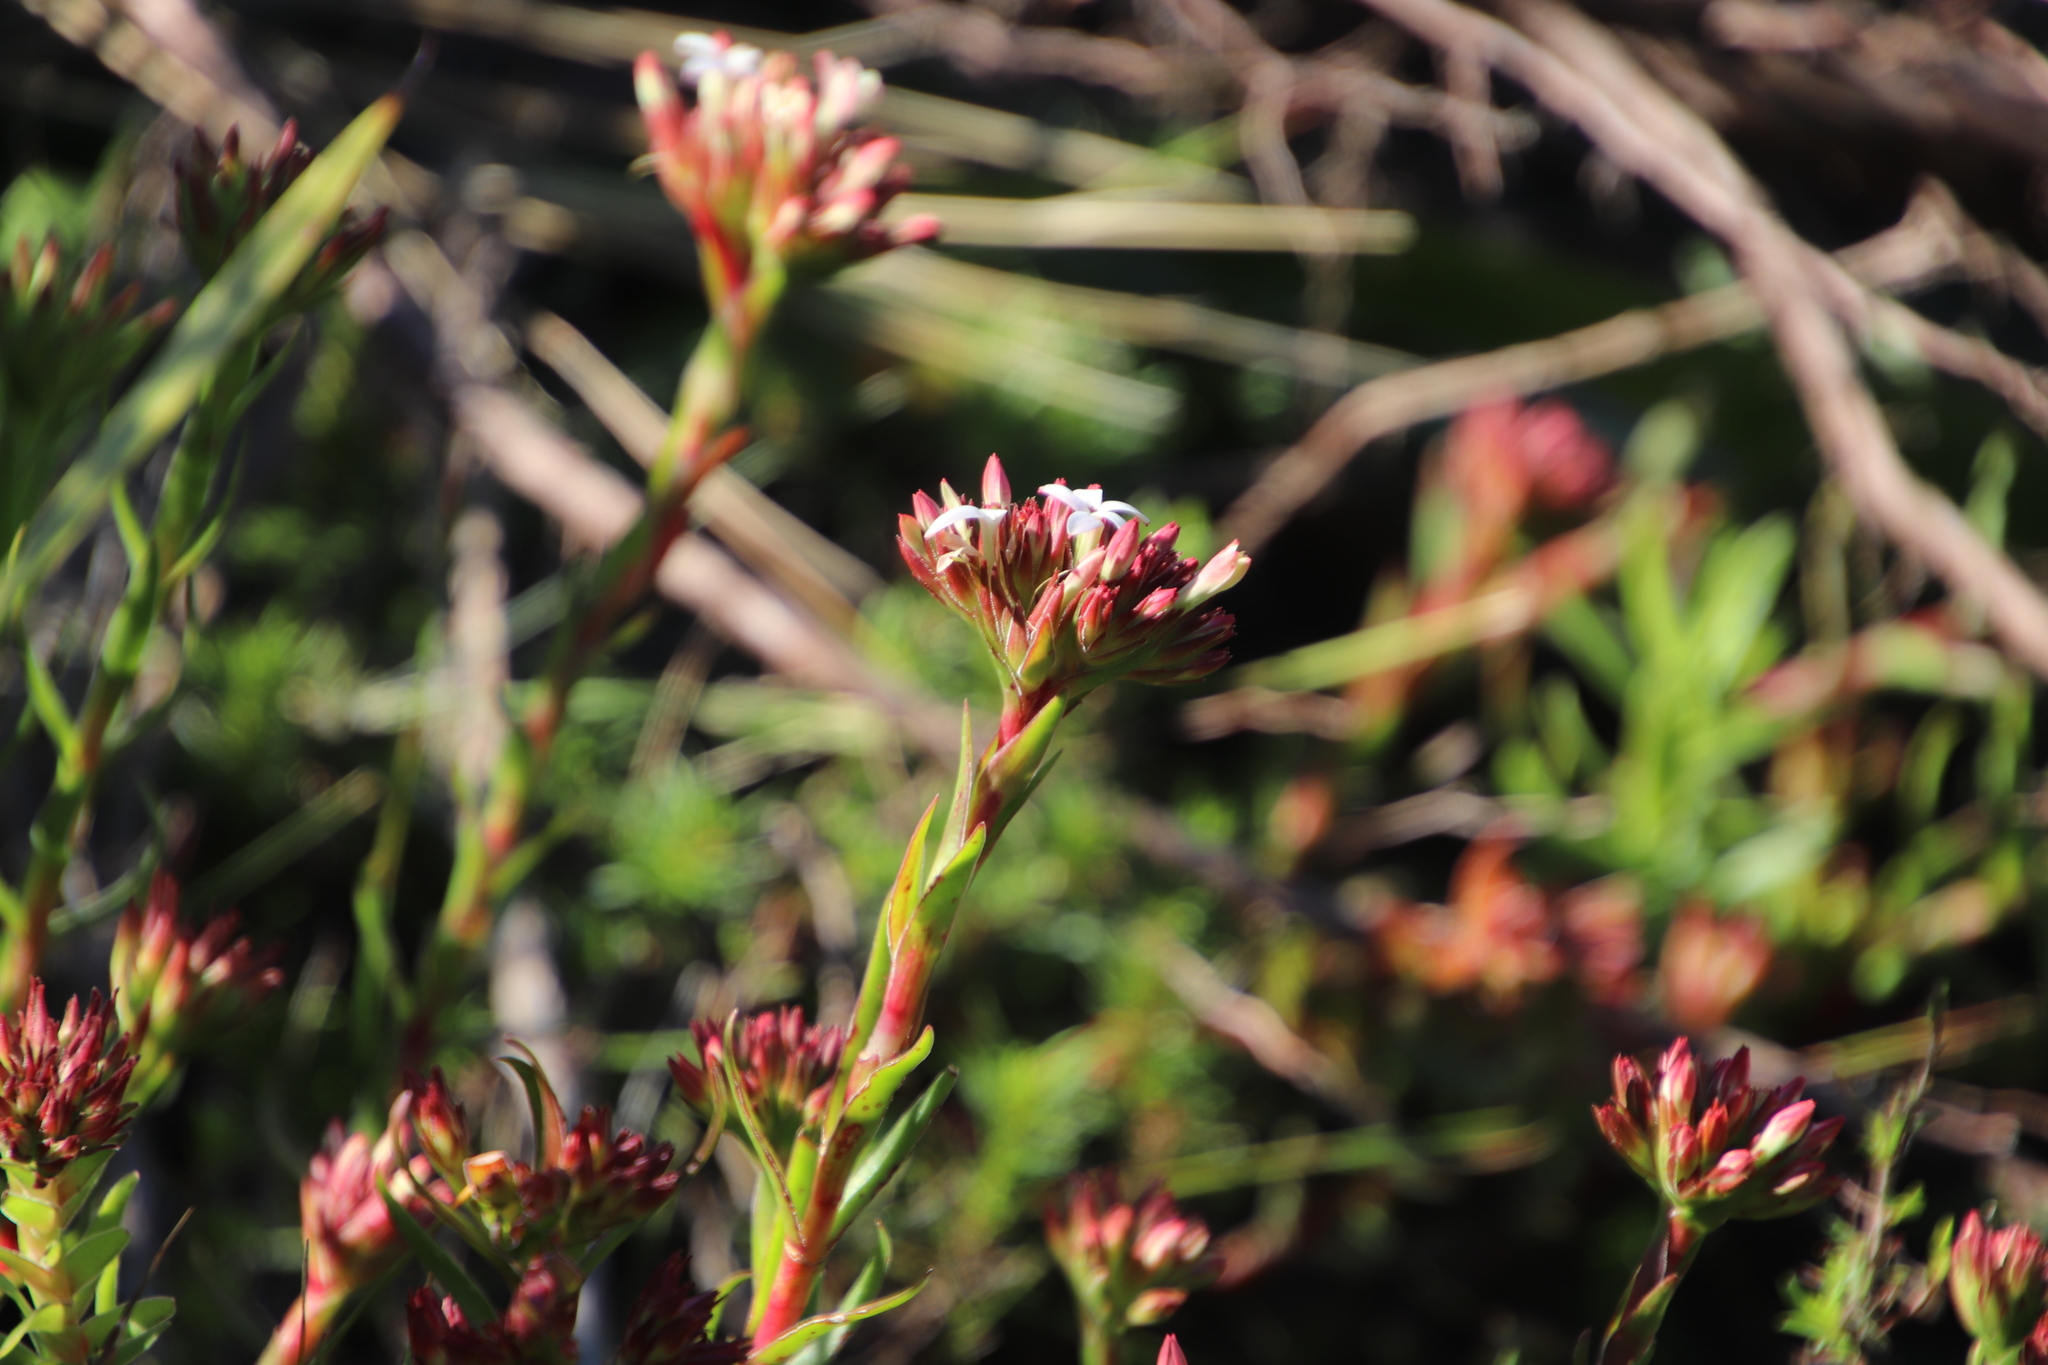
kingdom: Plantae
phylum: Tracheophyta
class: Magnoliopsida
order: Saxifragales
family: Crassulaceae
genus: Crassula
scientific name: Crassula fascicularis
